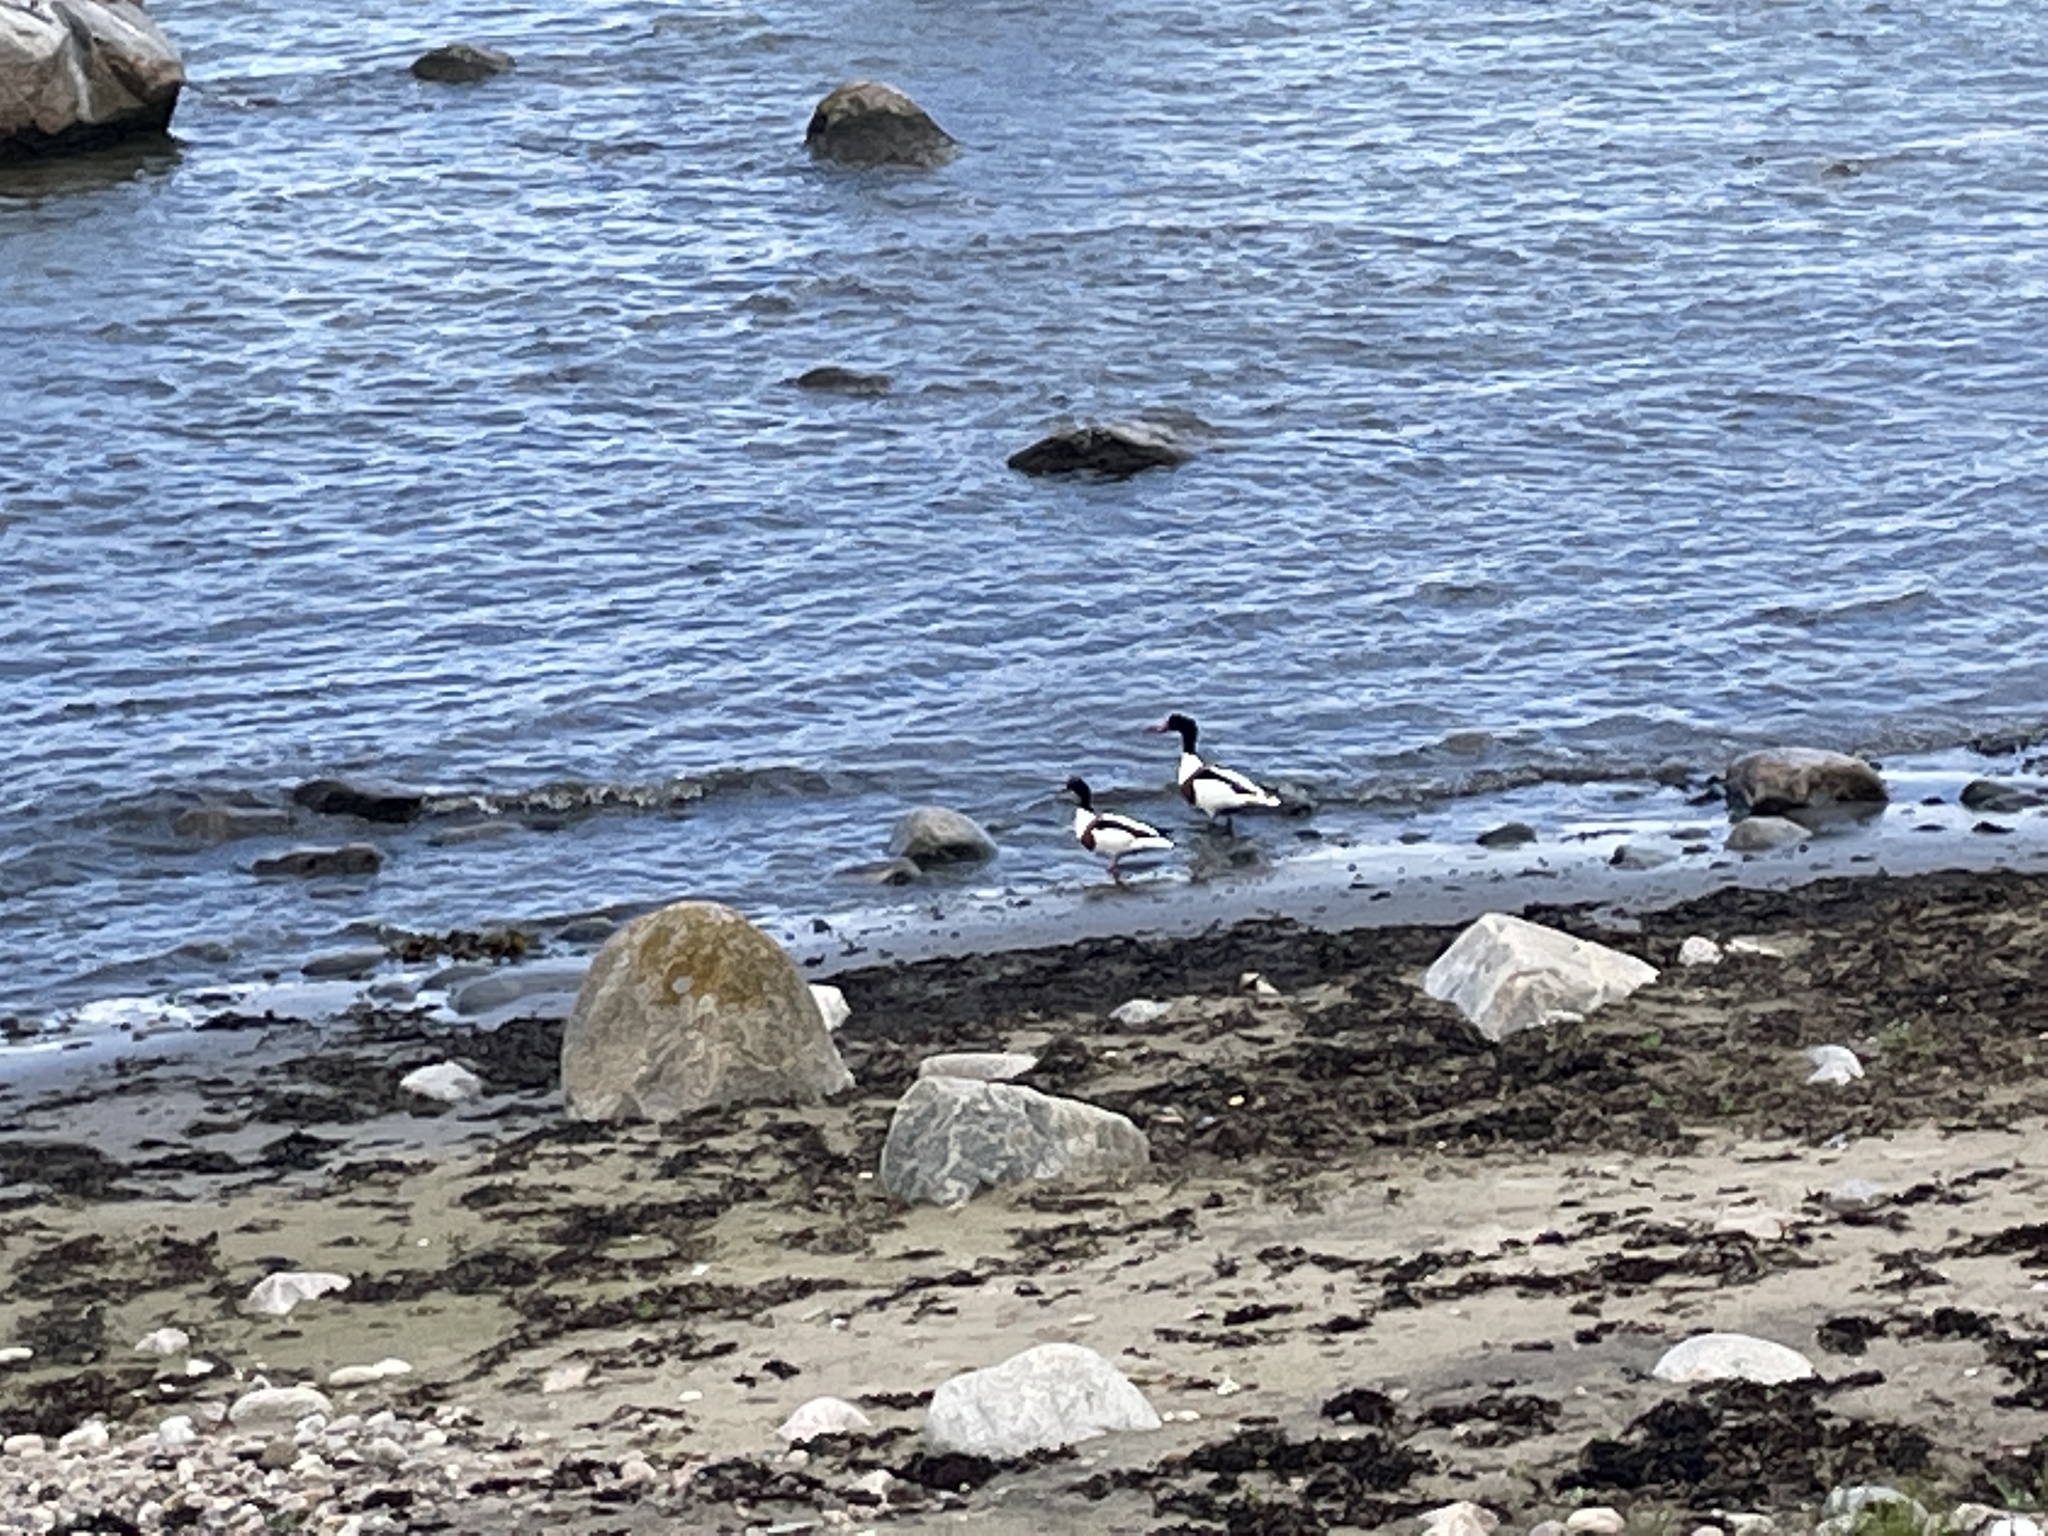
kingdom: Animalia
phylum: Chordata
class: Aves
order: Anseriformes
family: Anatidae
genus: Tadorna
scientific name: Tadorna tadorna
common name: Common shelduck
